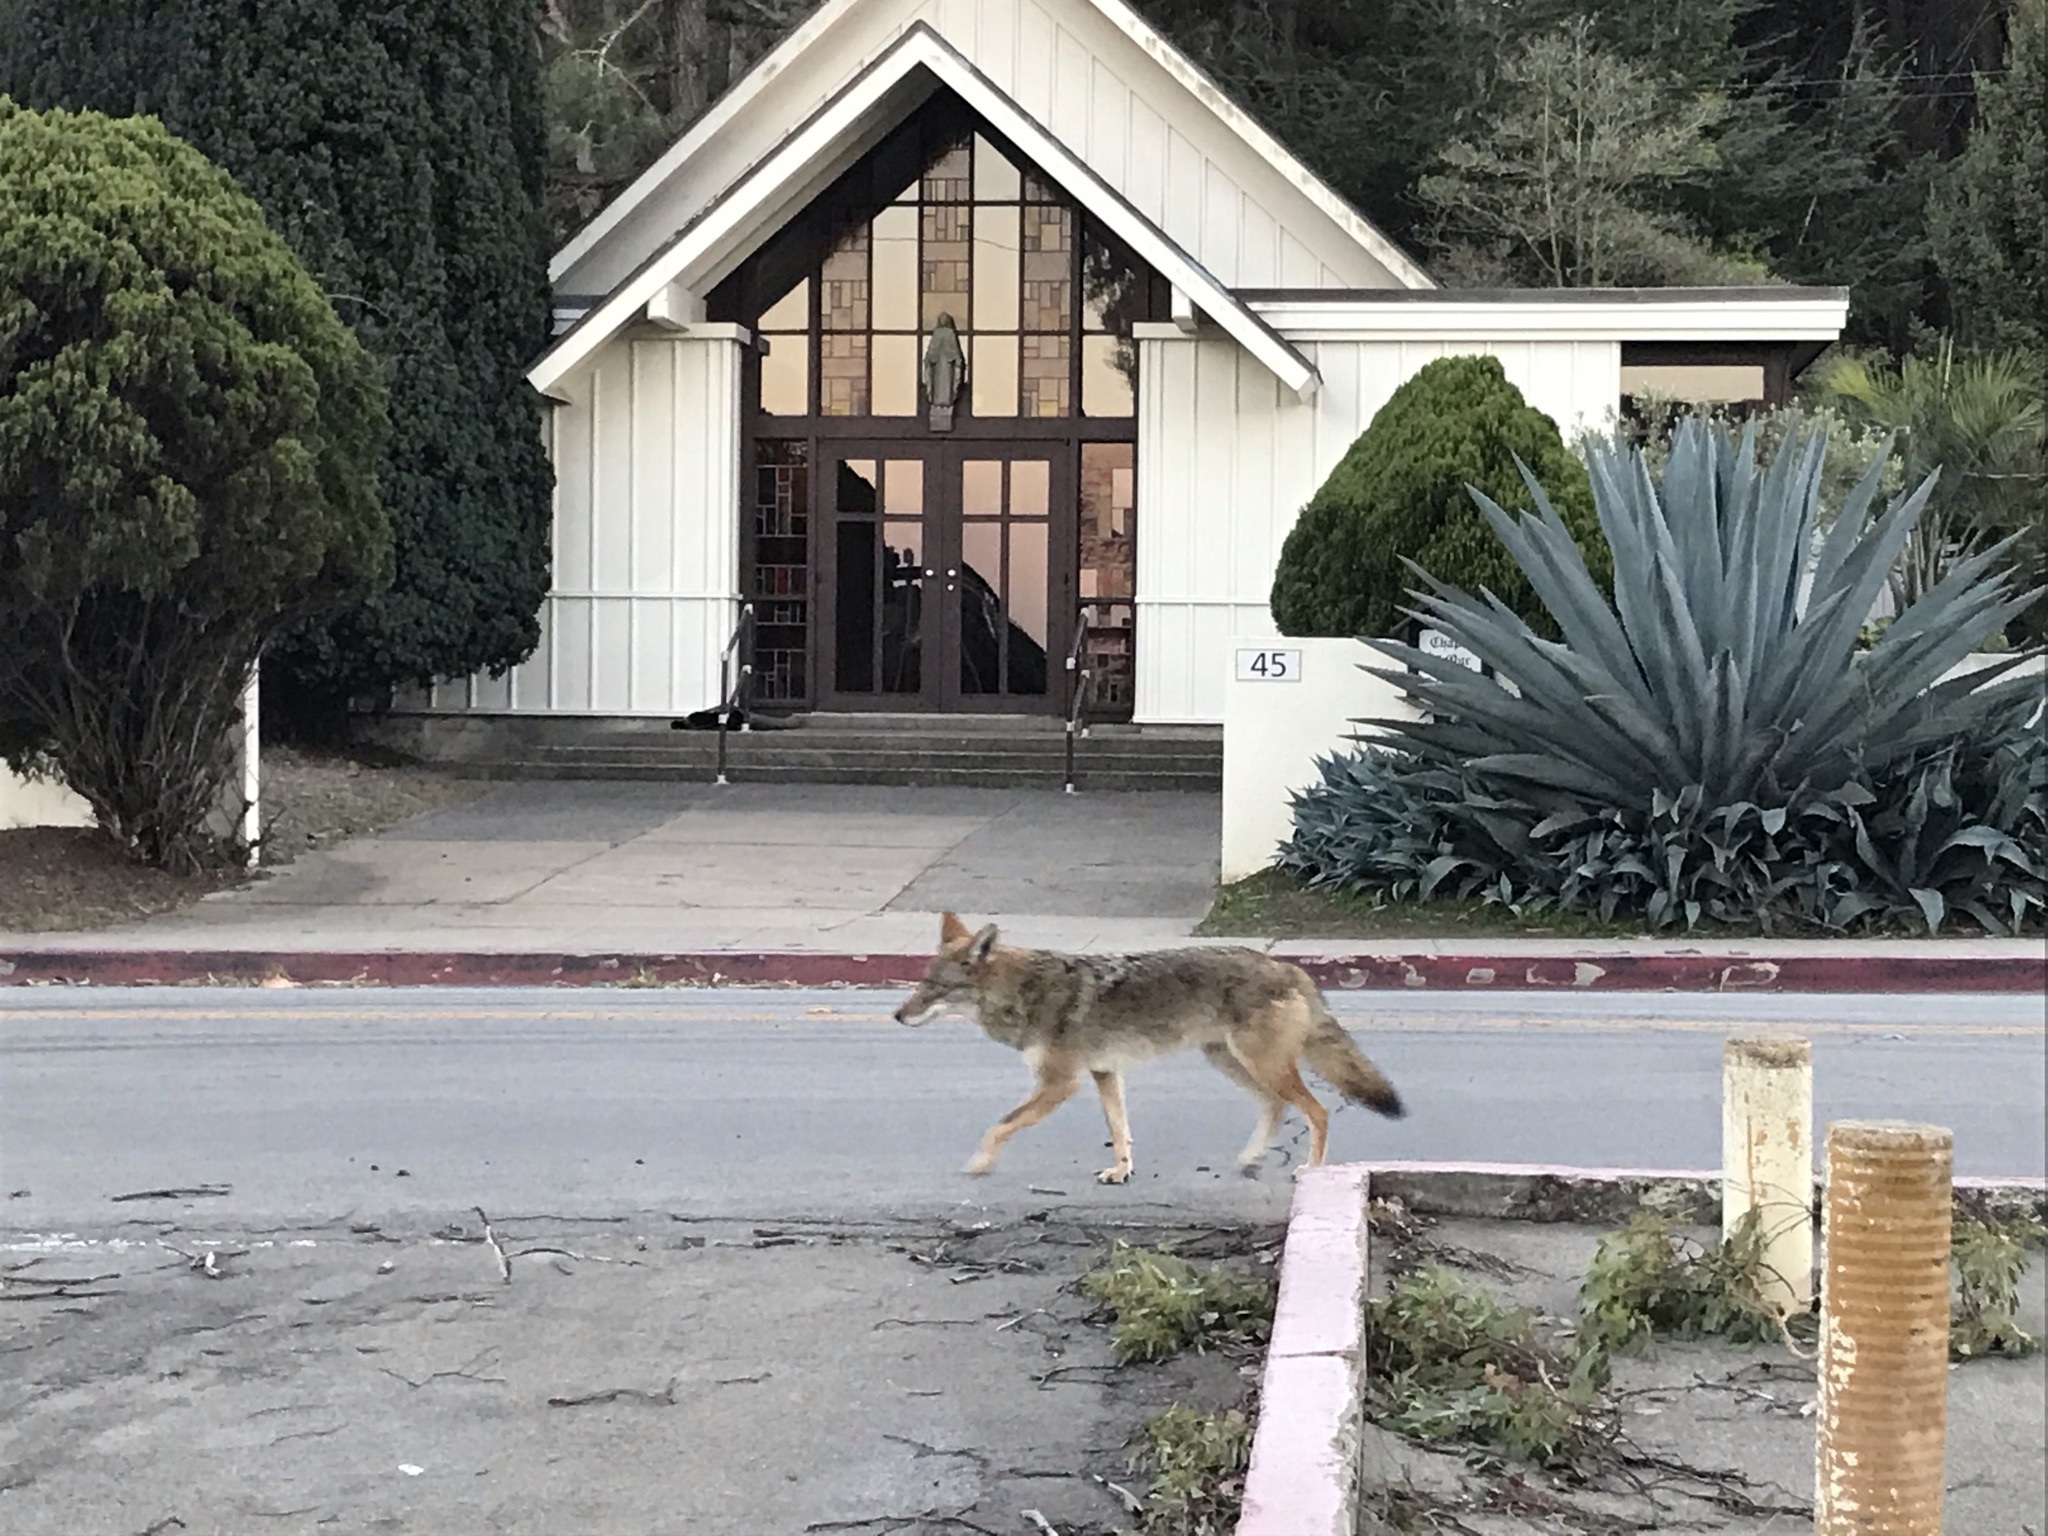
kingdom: Animalia
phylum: Chordata
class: Mammalia
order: Carnivora
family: Canidae
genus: Canis
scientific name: Canis latrans
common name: Coyote
